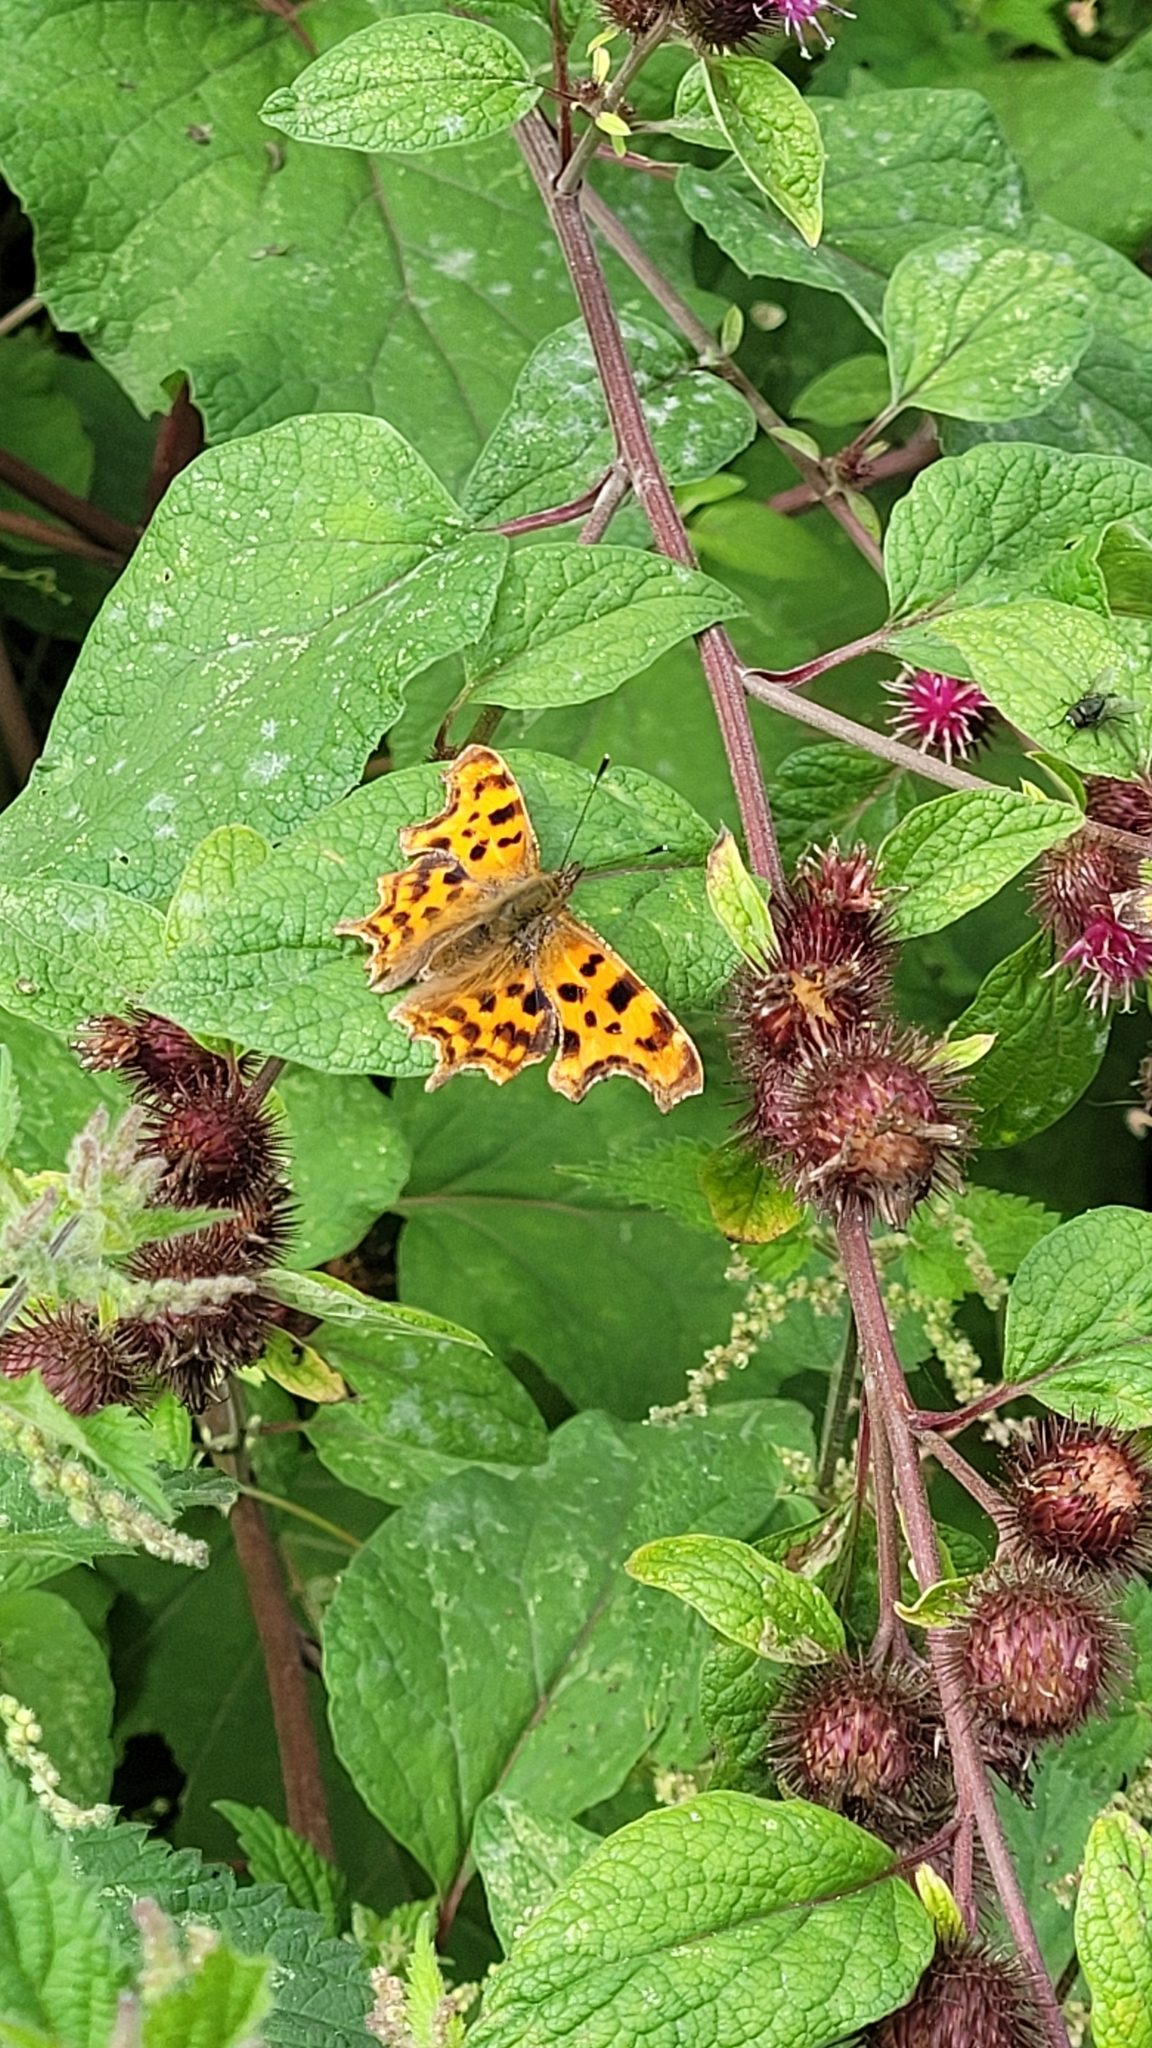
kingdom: Animalia
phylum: Arthropoda
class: Insecta
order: Lepidoptera
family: Nymphalidae
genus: Polygonia
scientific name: Polygonia c-album
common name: Comma
